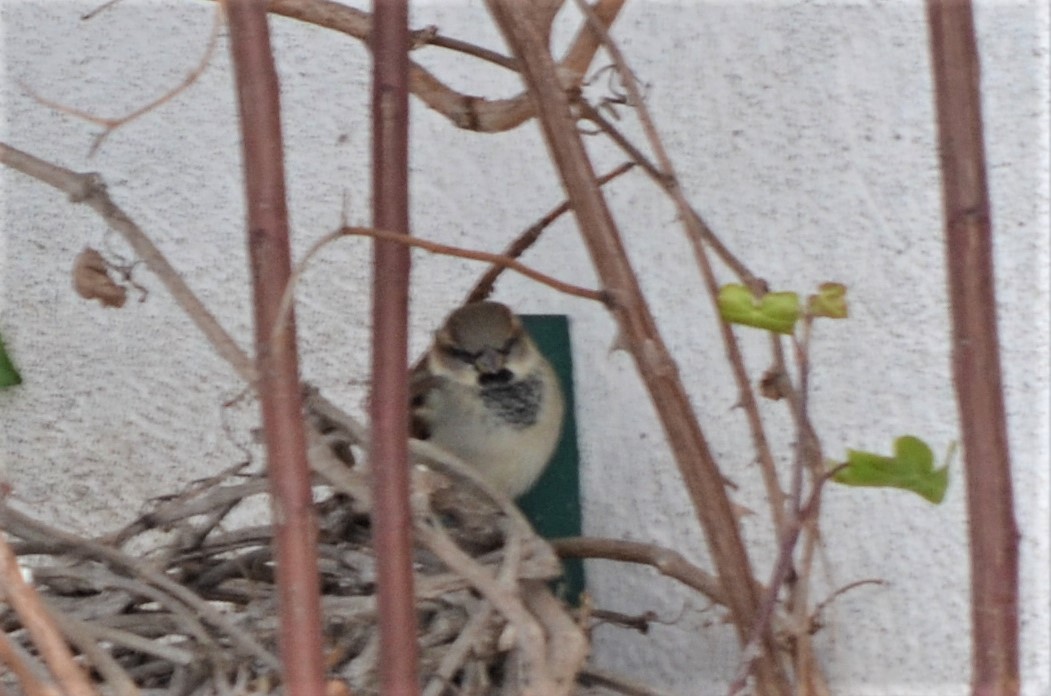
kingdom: Animalia
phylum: Chordata
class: Aves
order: Passeriformes
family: Passeridae
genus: Passer
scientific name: Passer domesticus
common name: House sparrow
